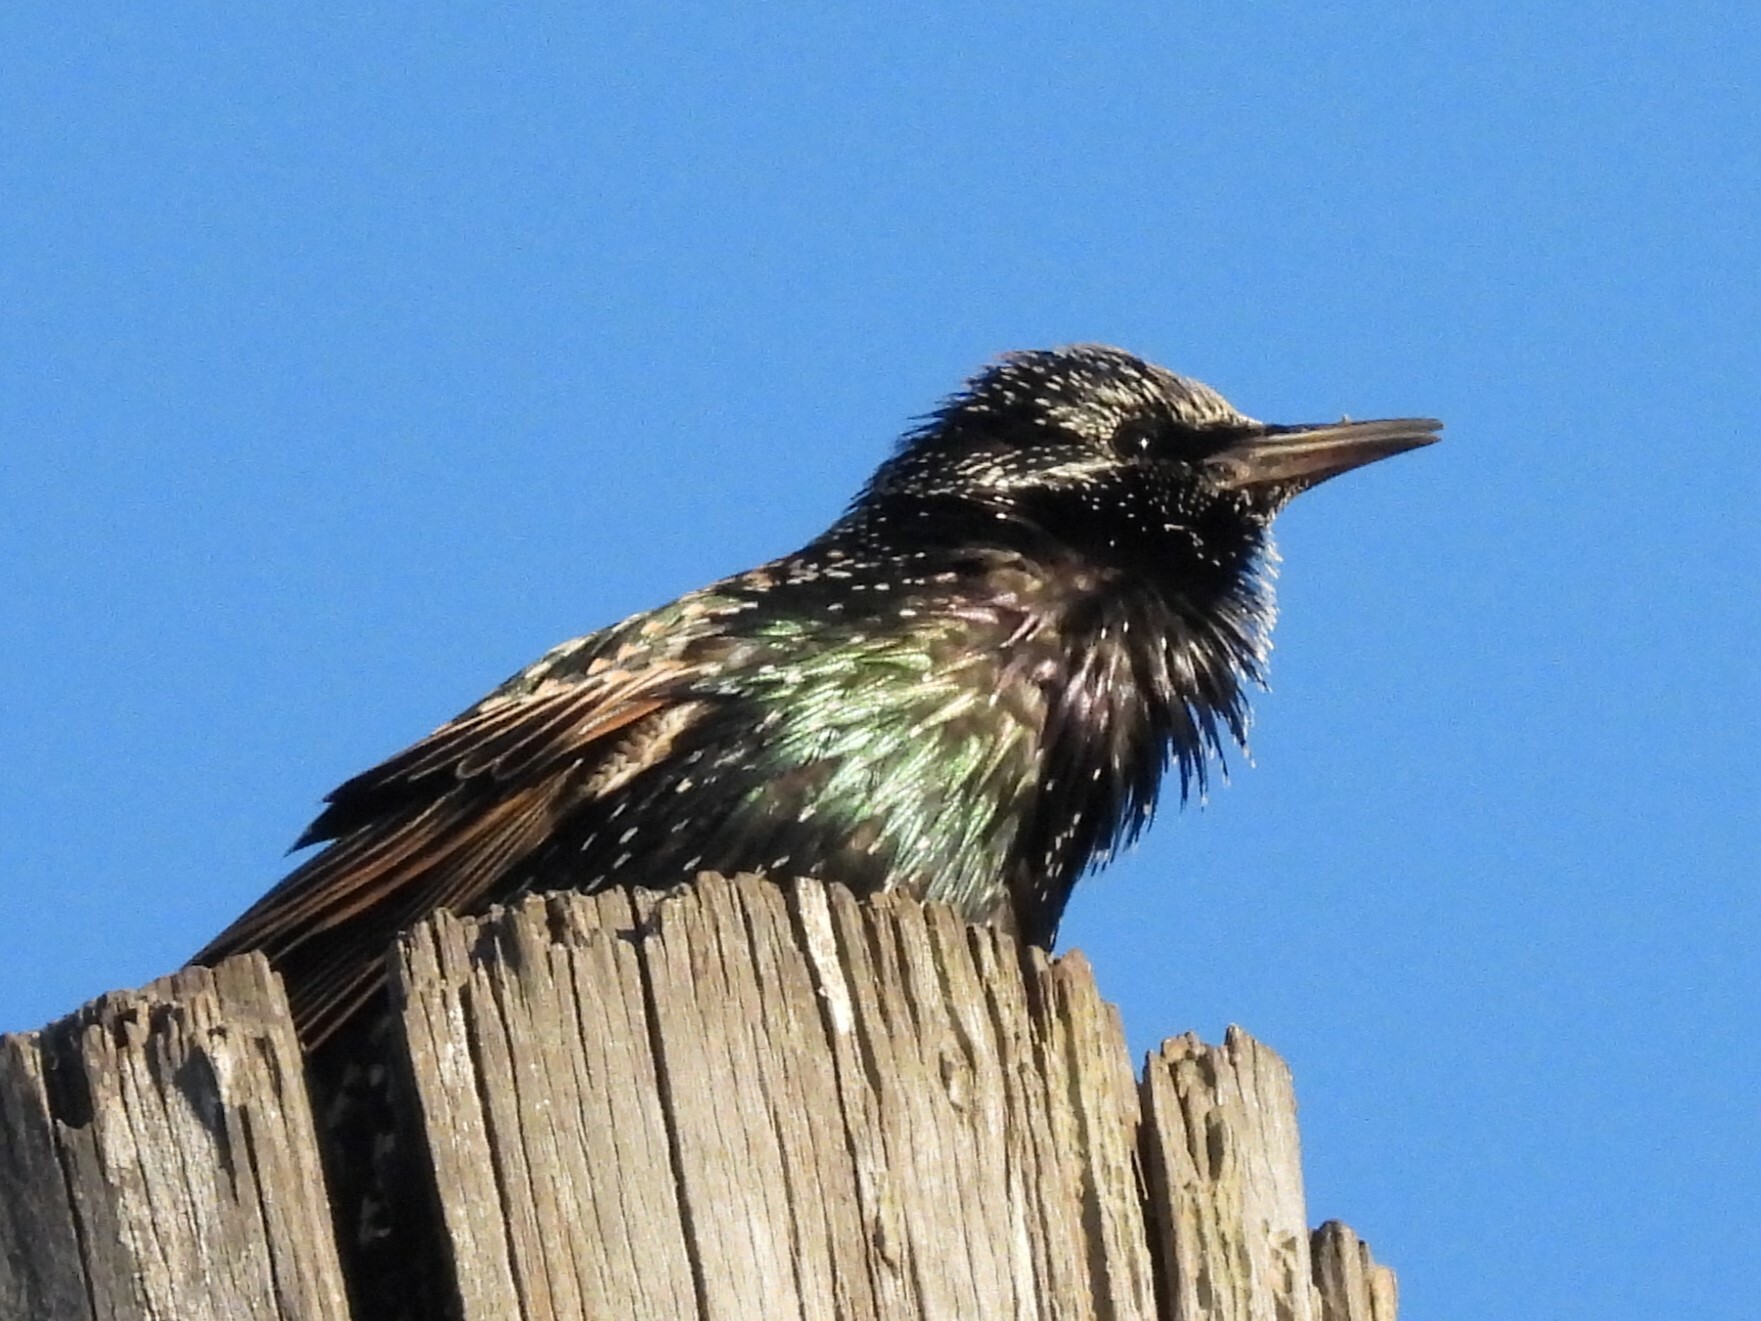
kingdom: Animalia
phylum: Chordata
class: Aves
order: Passeriformes
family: Sturnidae
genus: Sturnus
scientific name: Sturnus vulgaris
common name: Common starling
